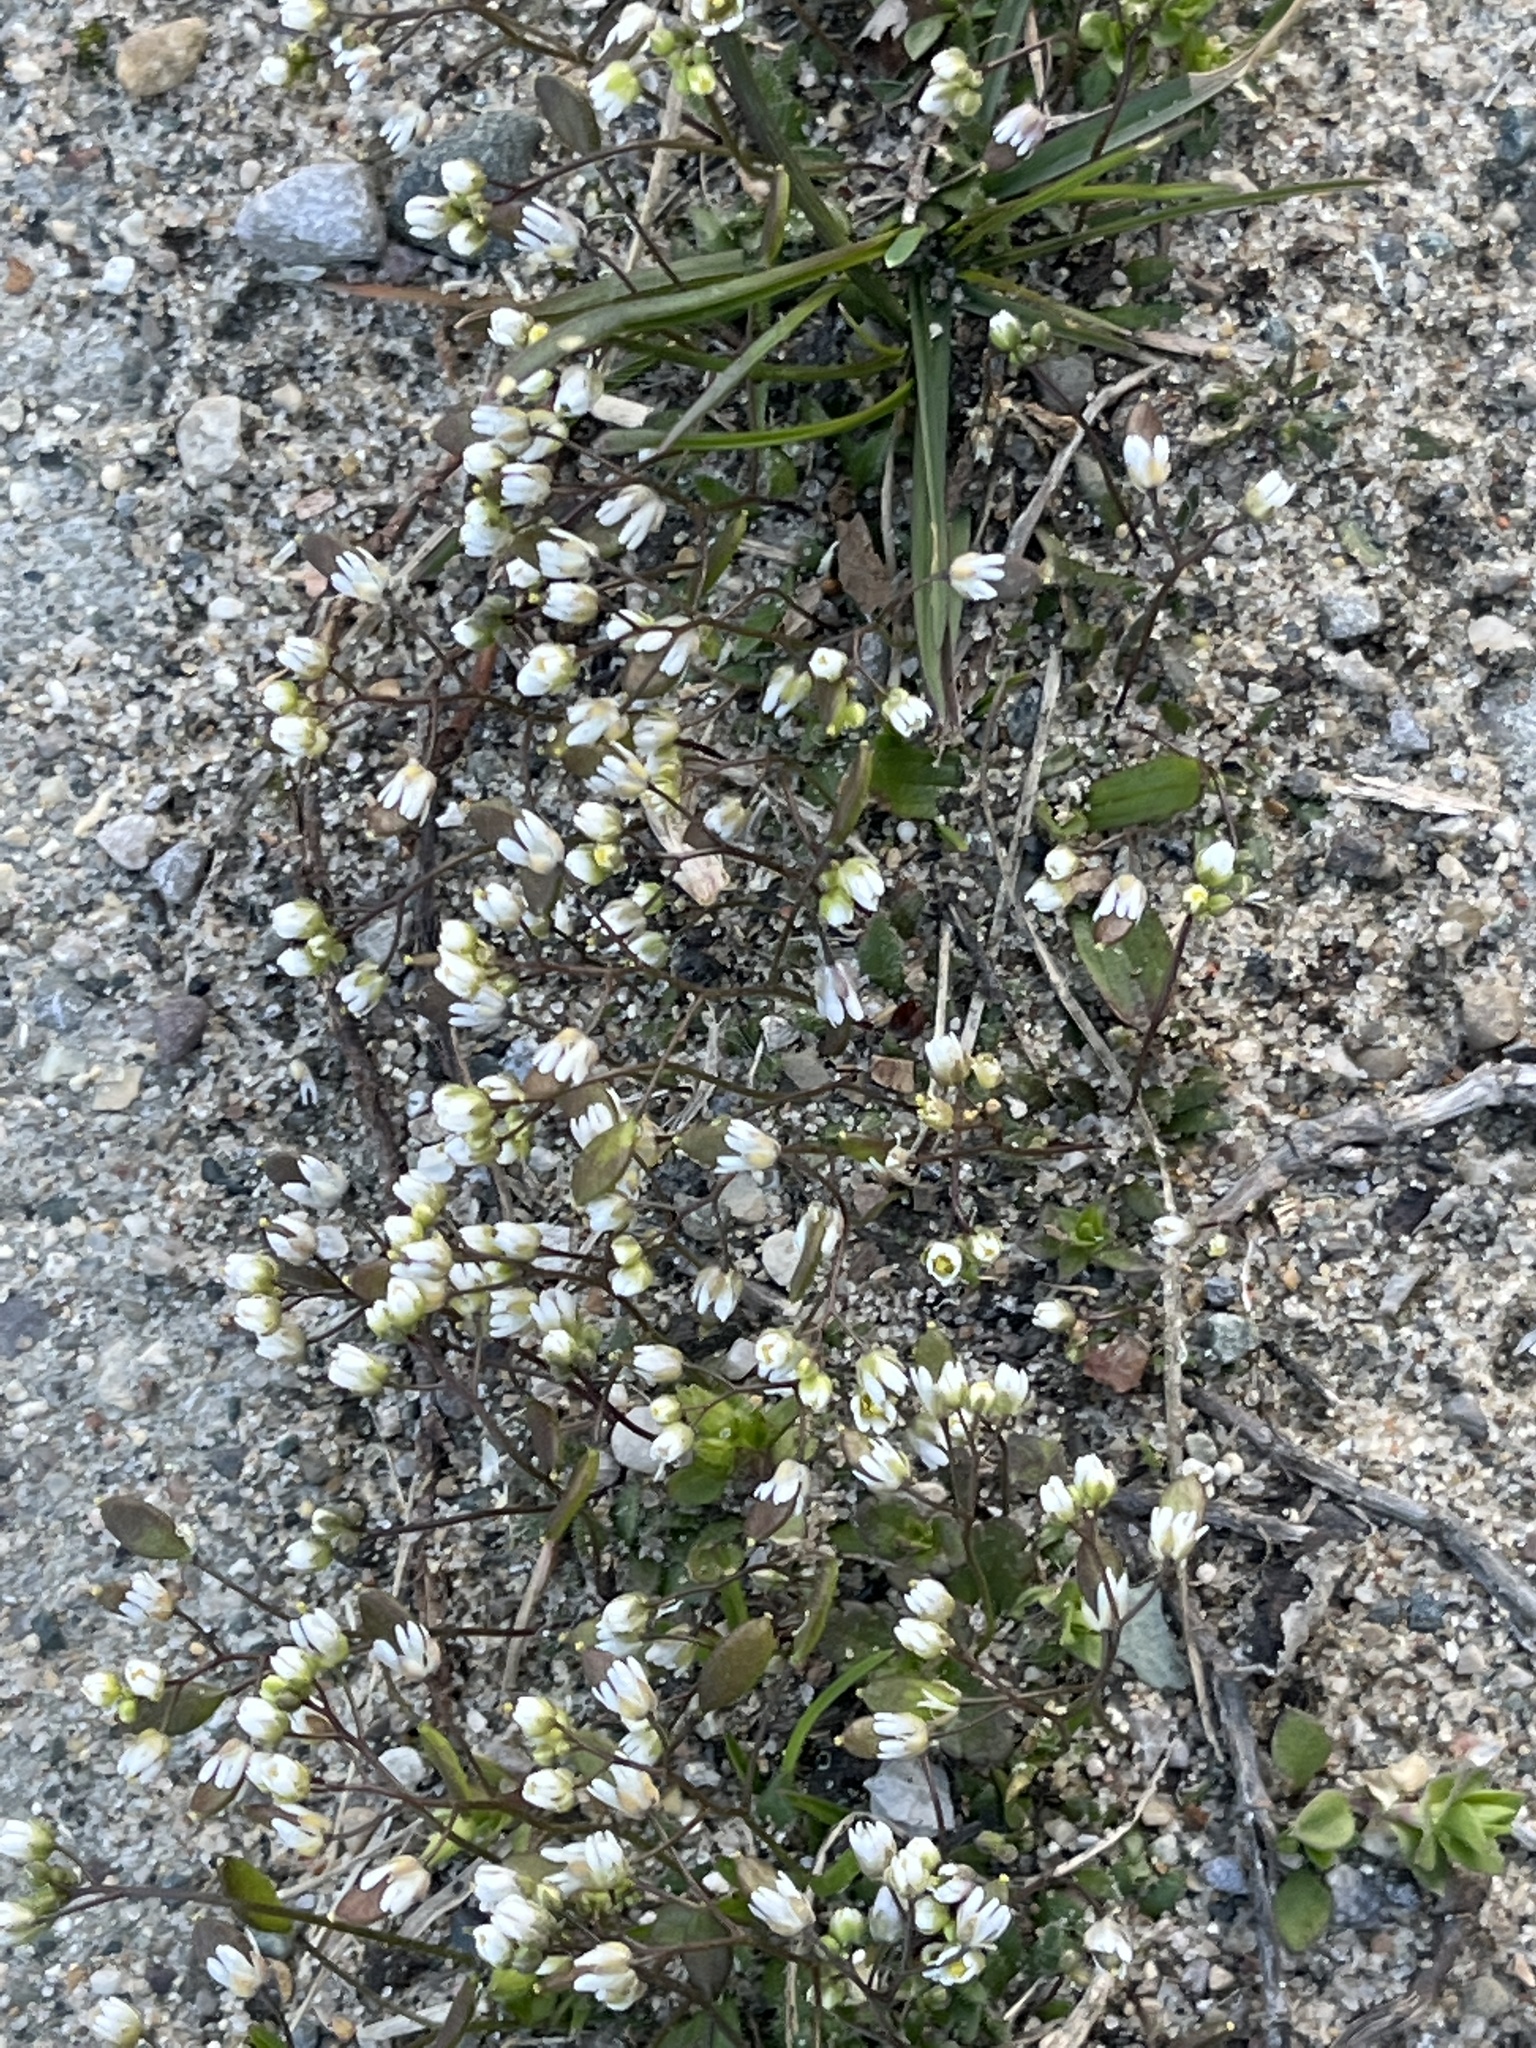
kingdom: Plantae
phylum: Tracheophyta
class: Magnoliopsida
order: Brassicales
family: Brassicaceae
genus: Draba
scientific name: Draba verna
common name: Spring draba
